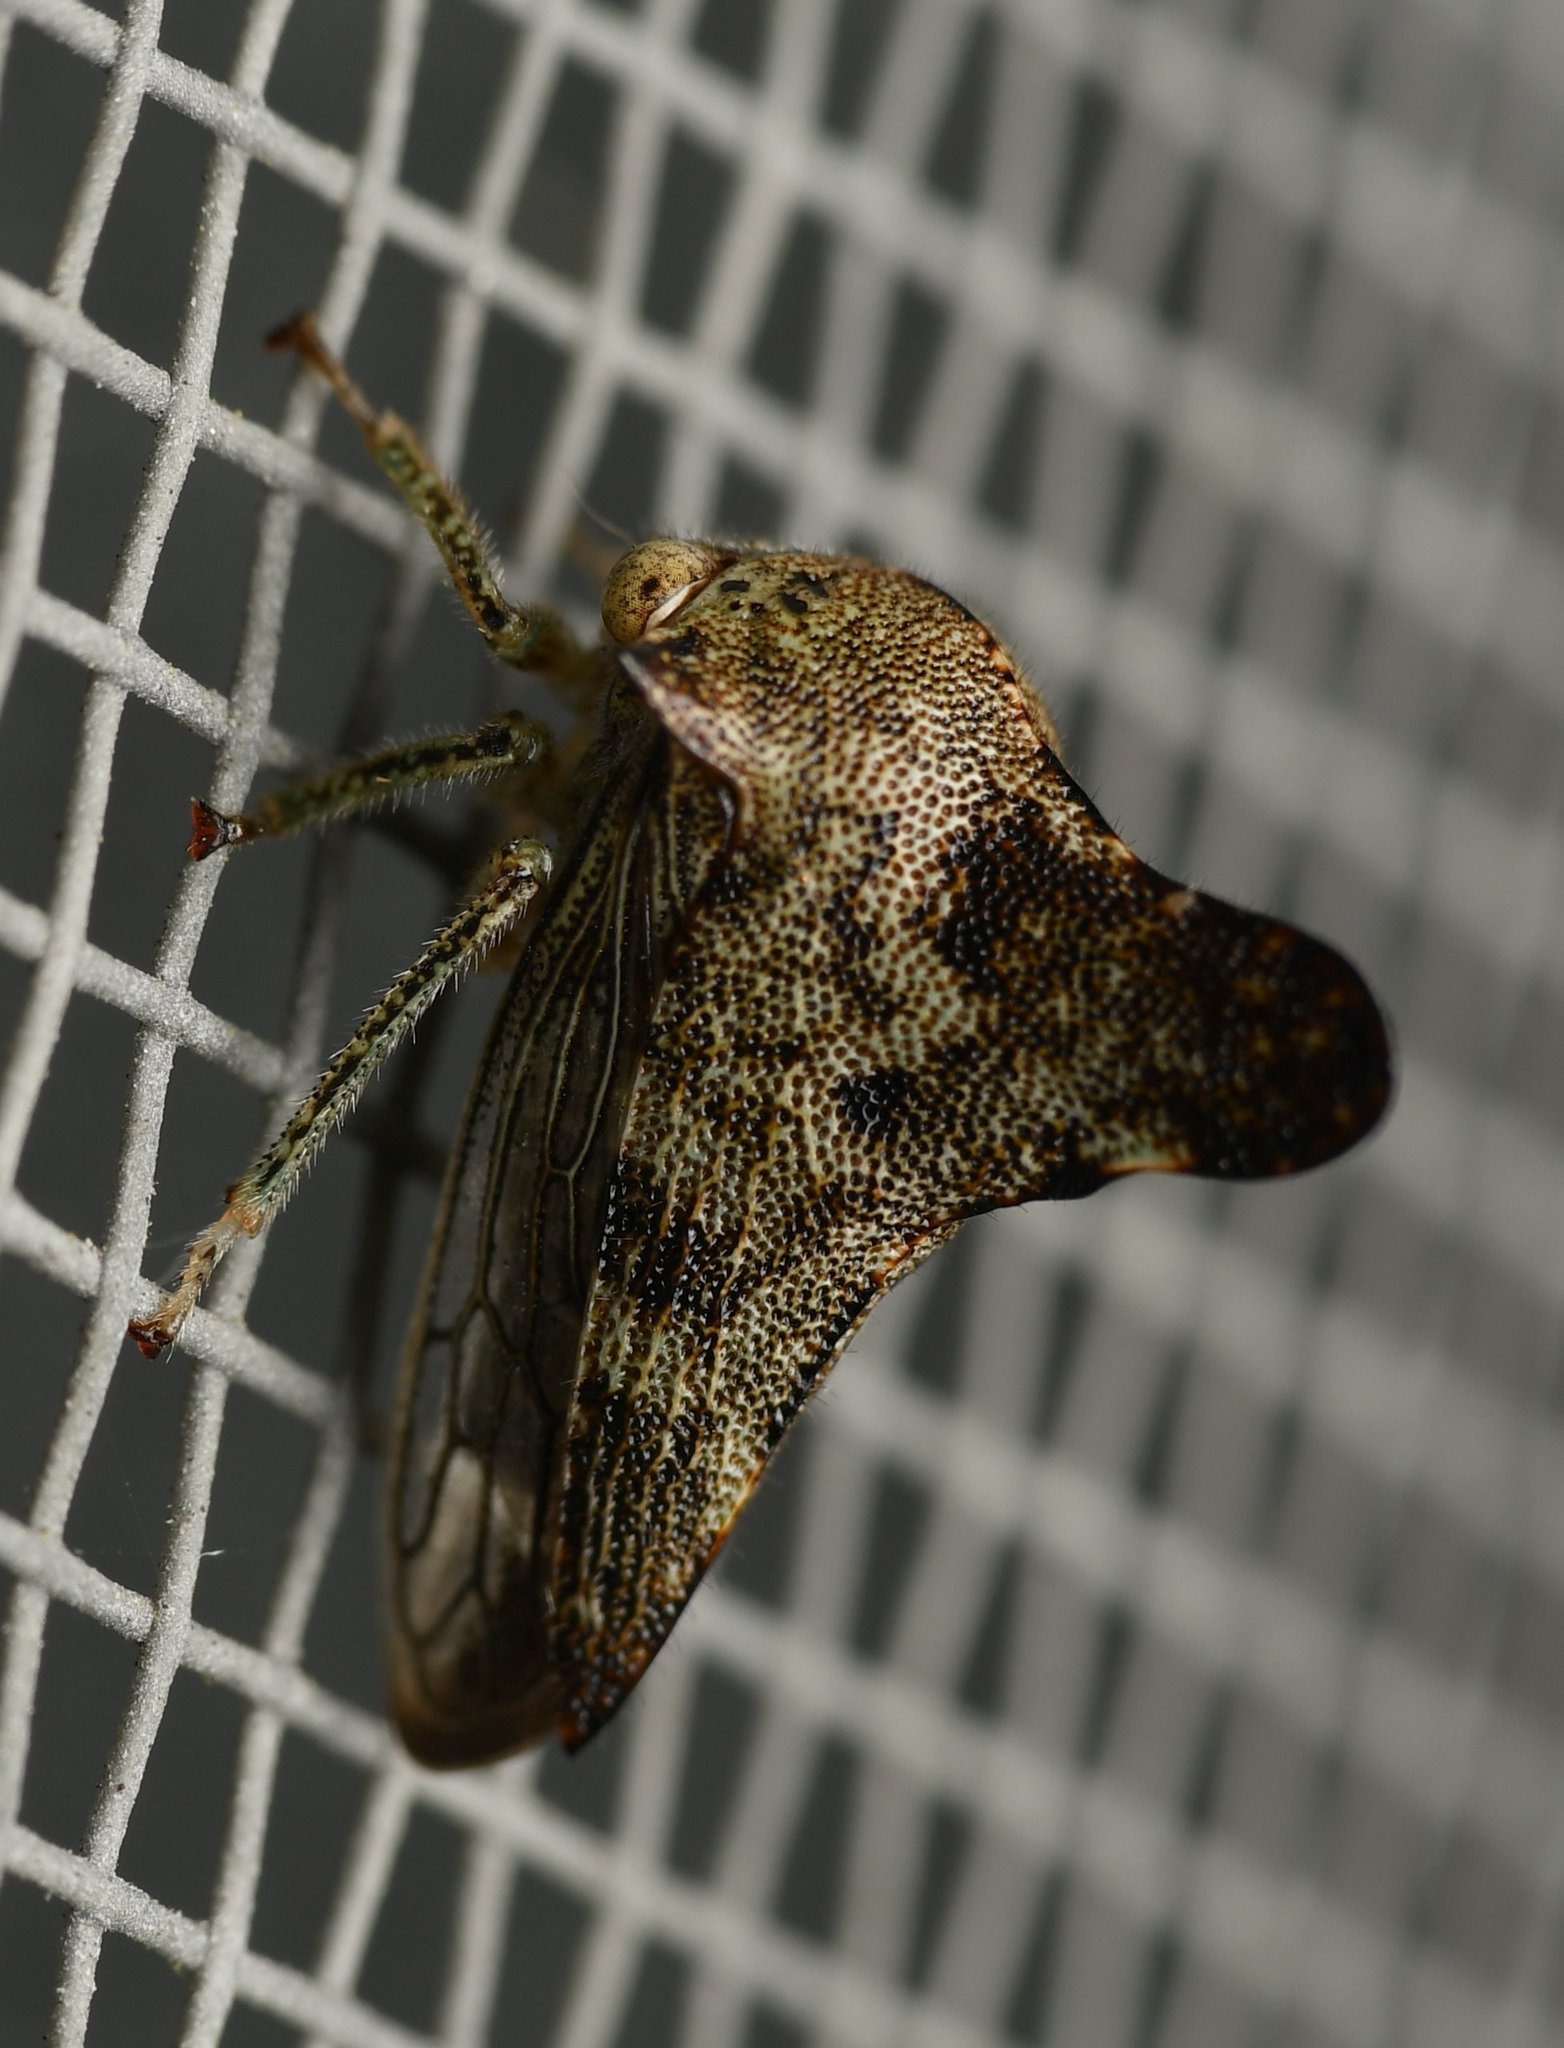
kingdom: Animalia
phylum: Arthropoda
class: Insecta
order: Hemiptera
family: Membracidae
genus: Telonaca
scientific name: Telonaca alta
